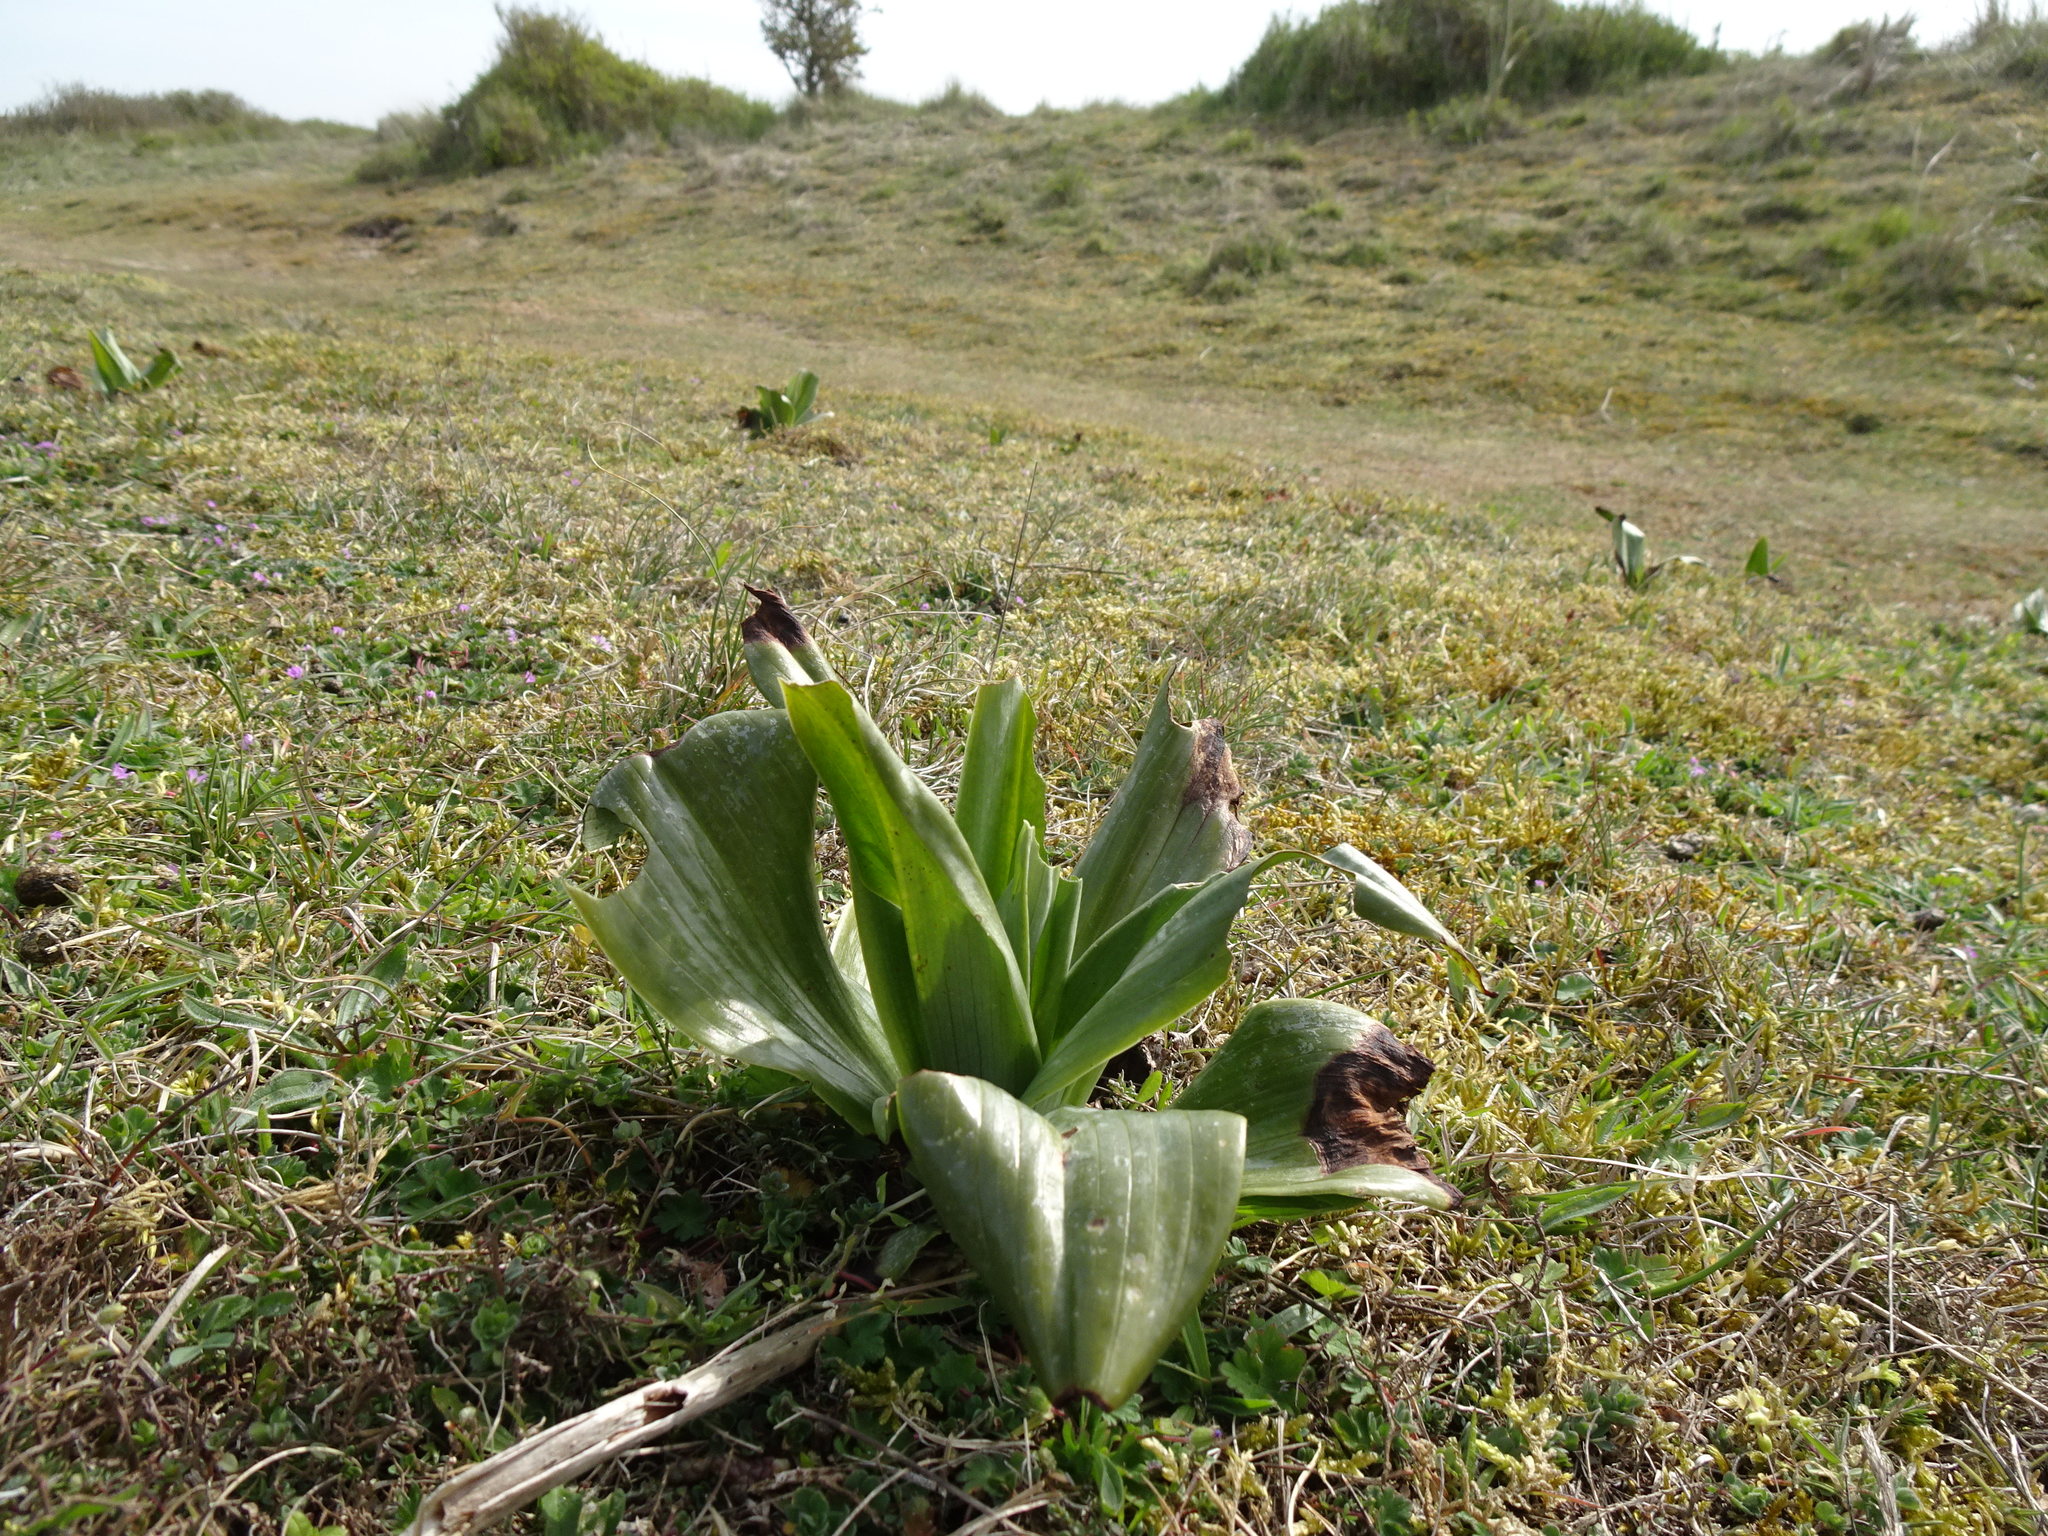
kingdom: Plantae
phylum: Tracheophyta
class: Liliopsida
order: Asparagales
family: Orchidaceae
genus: Himantoglossum
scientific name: Himantoglossum hircinum
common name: Lizard orchid
